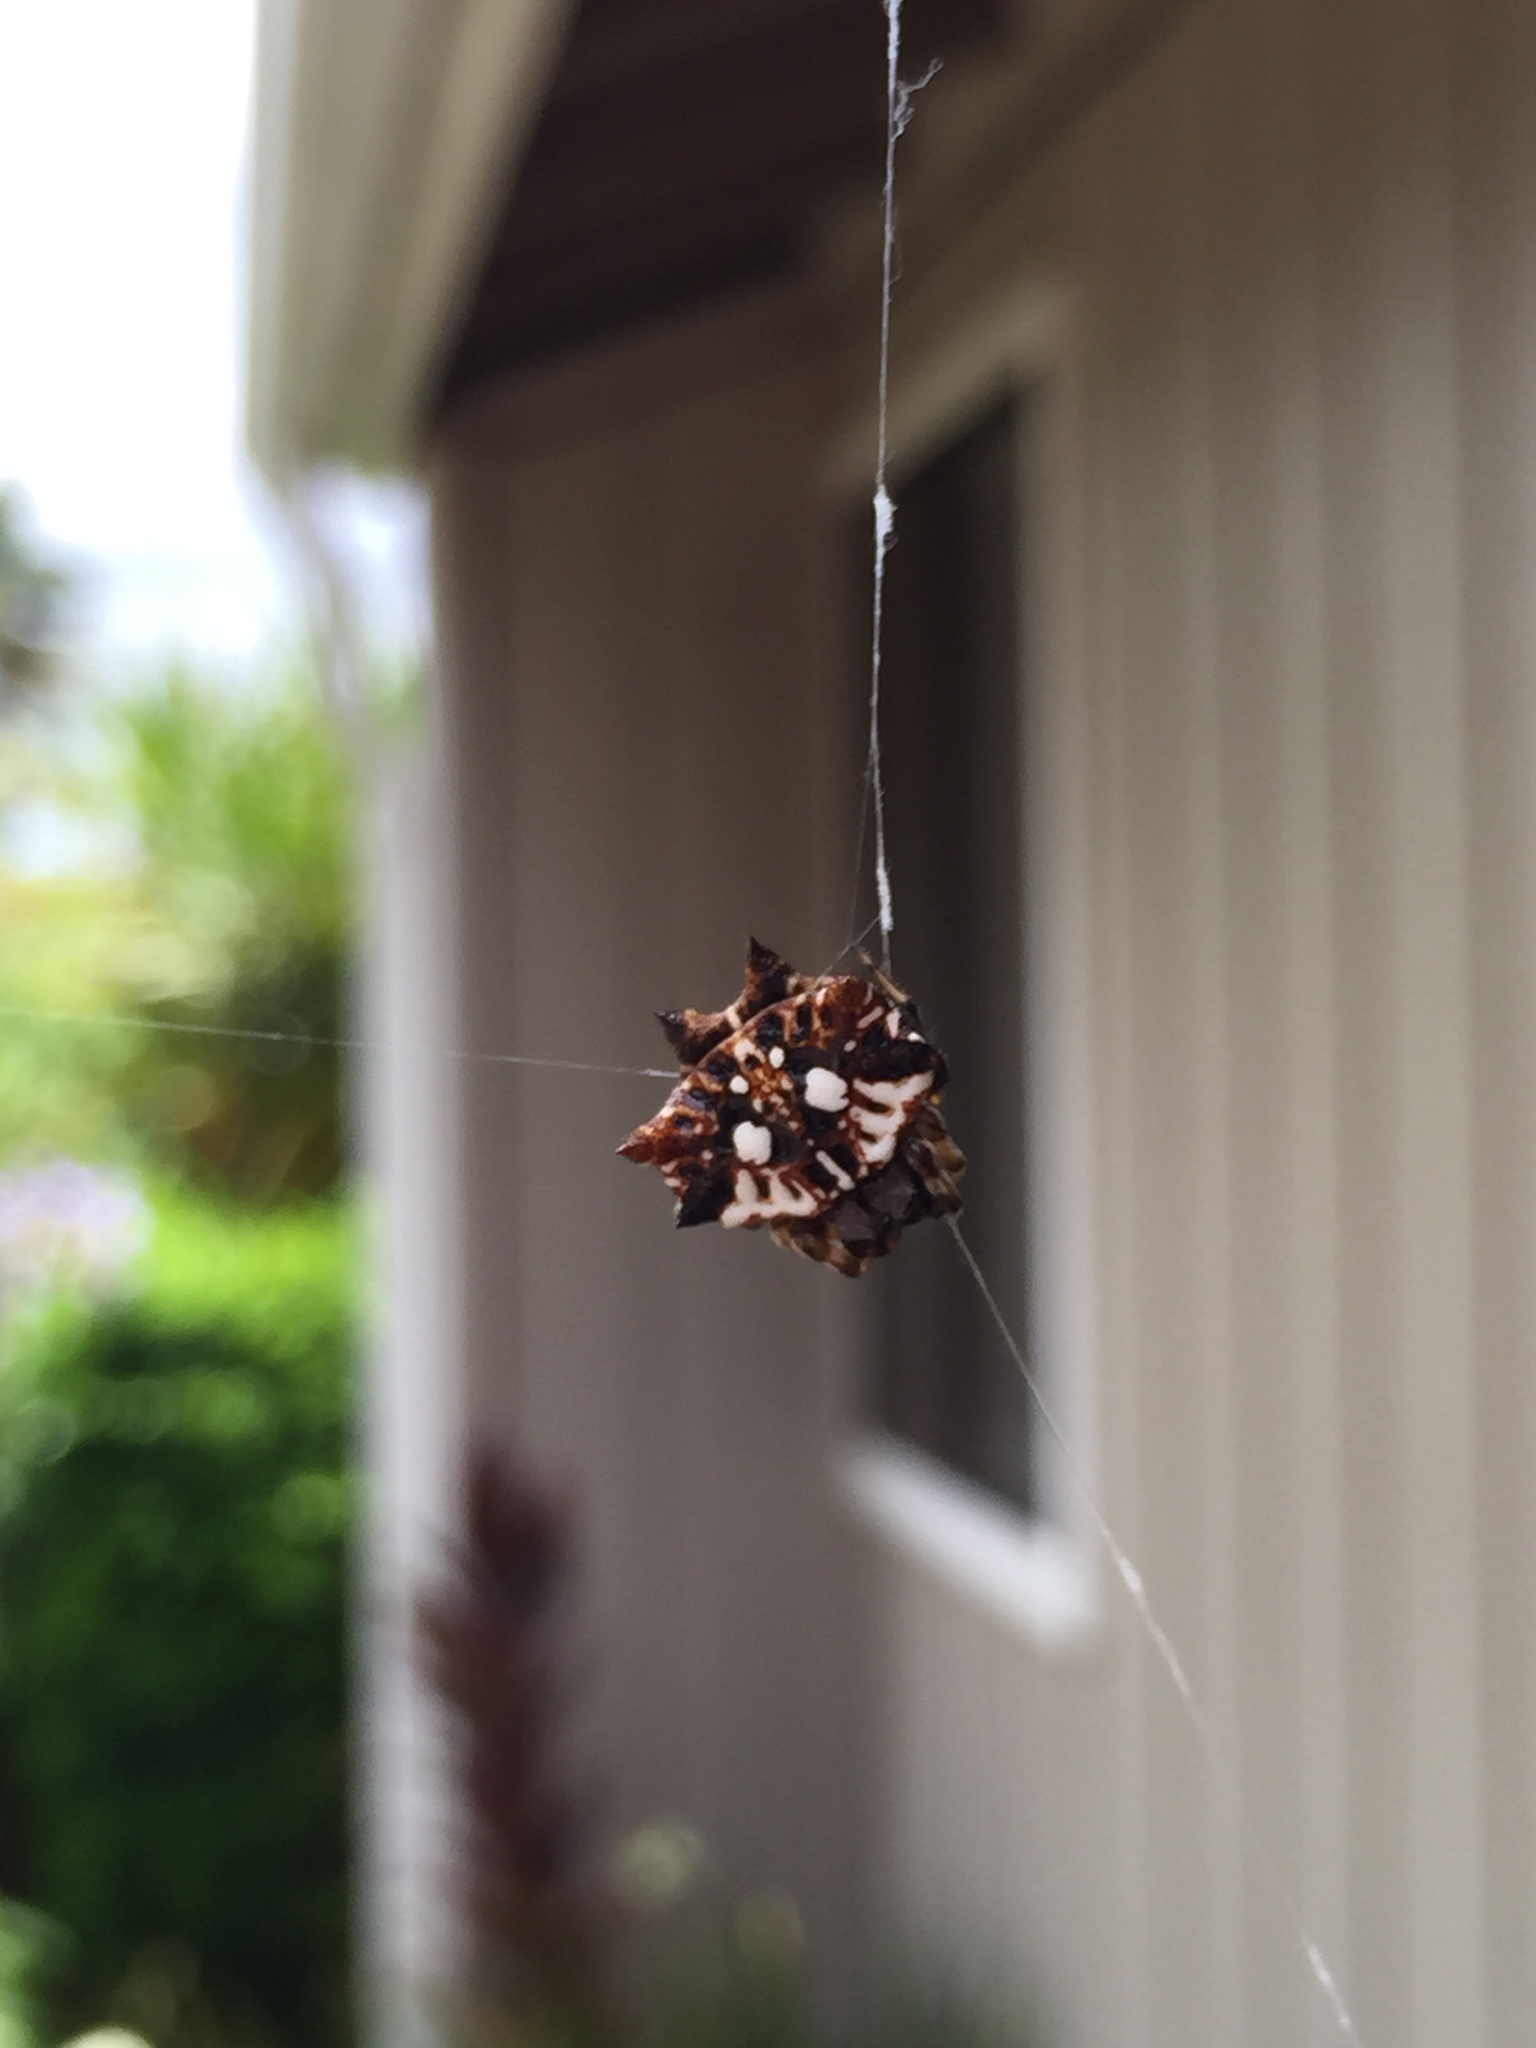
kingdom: Animalia
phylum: Arthropoda
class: Arachnida
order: Araneae
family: Araneidae
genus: Thelacantha
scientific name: Thelacantha brevispina
